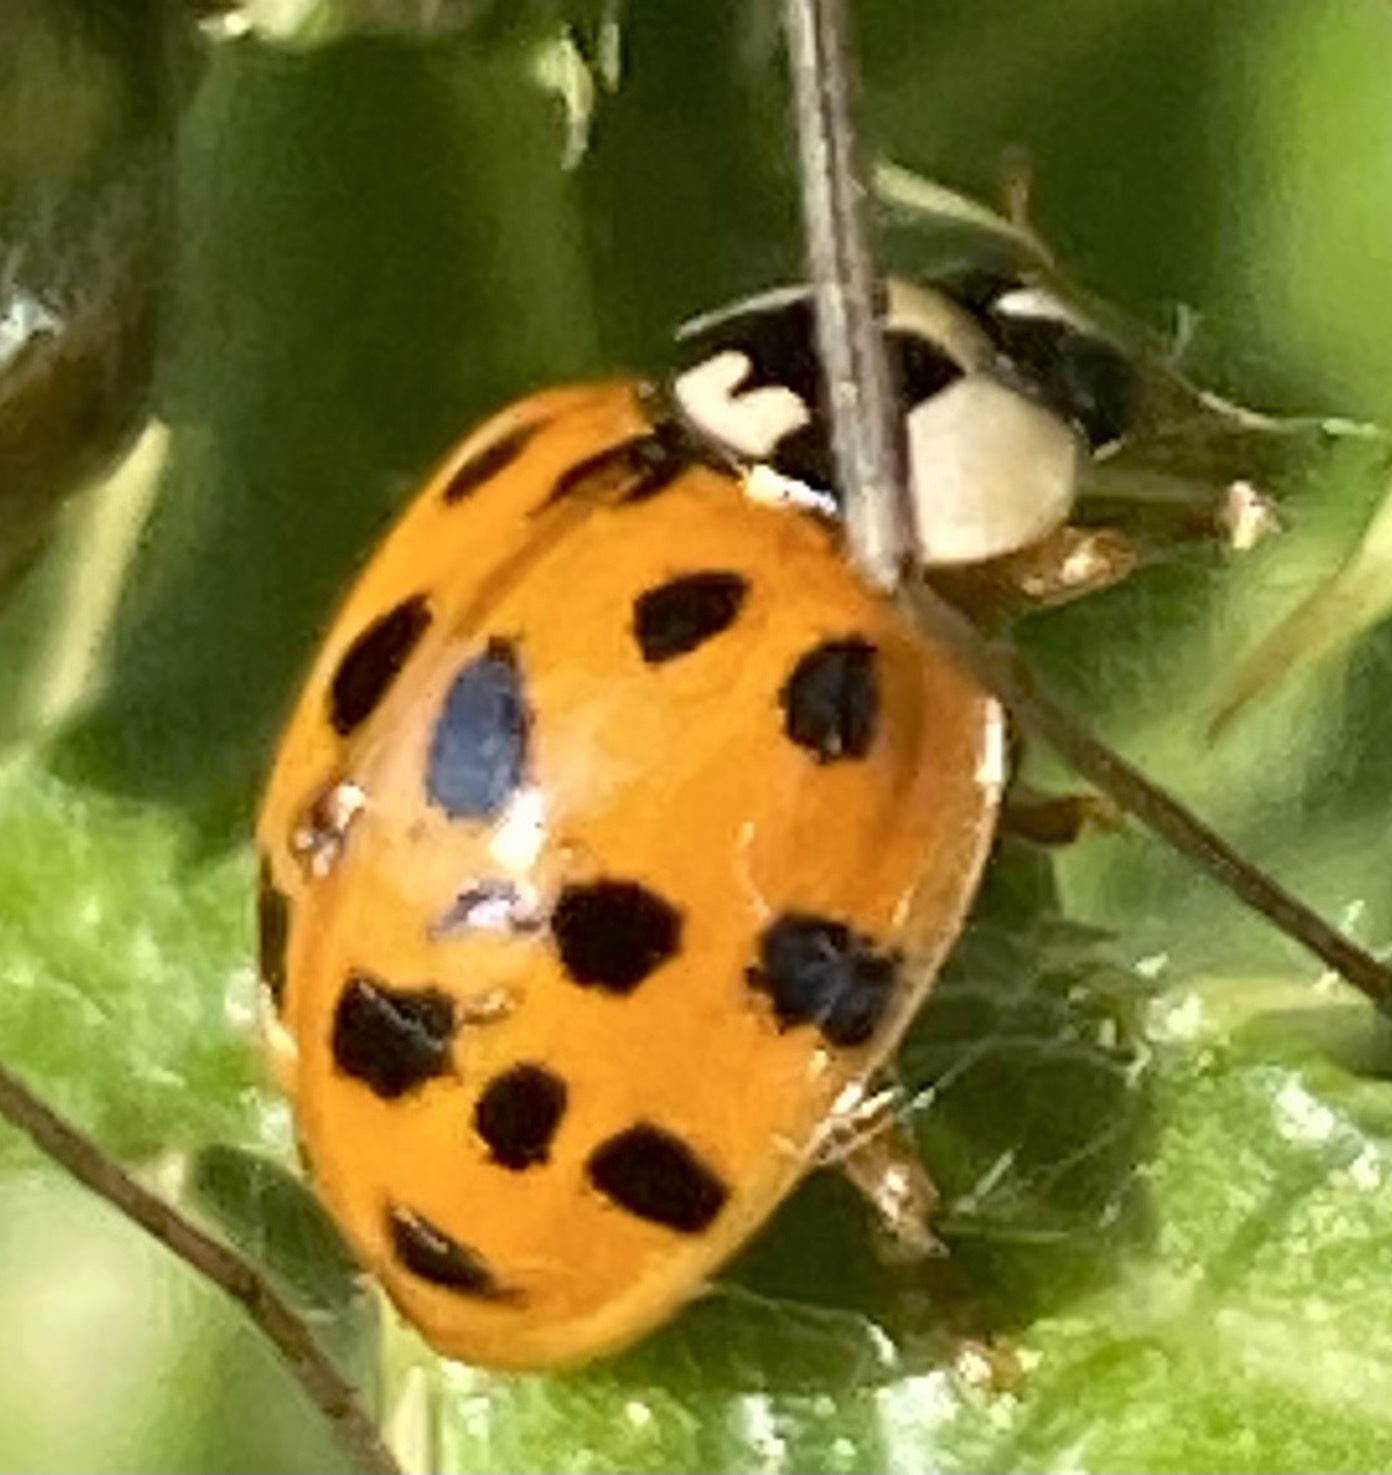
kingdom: Animalia
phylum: Arthropoda
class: Insecta
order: Coleoptera
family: Coccinellidae
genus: Harmonia
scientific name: Harmonia axyridis
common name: Harlequin ladybird
